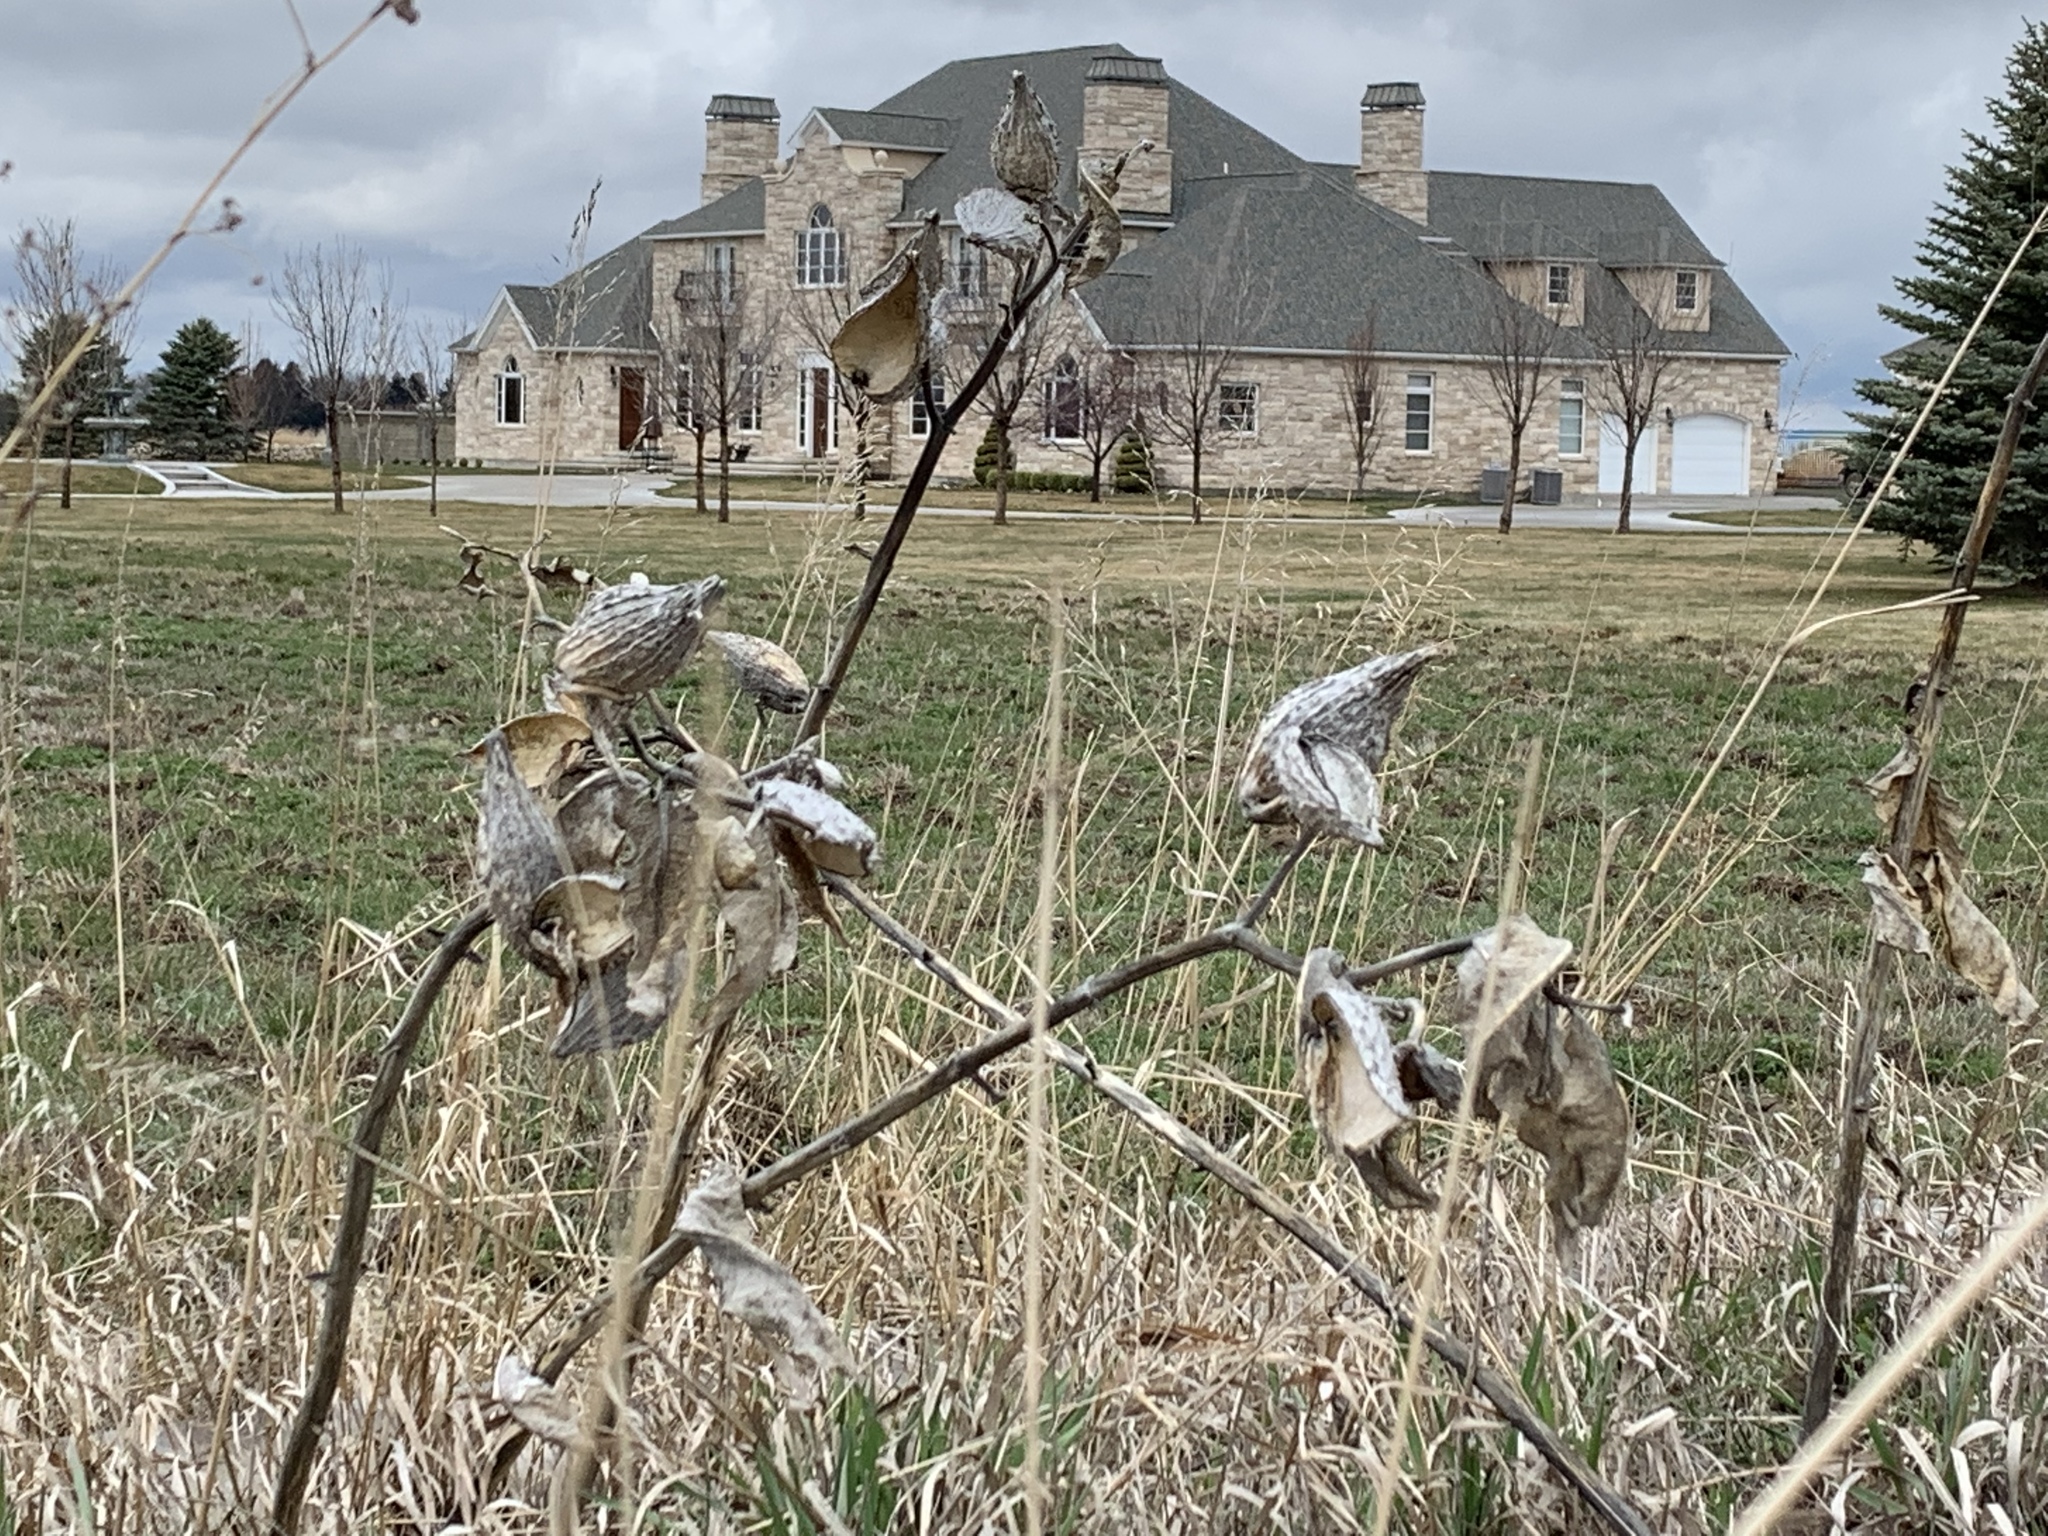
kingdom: Plantae
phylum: Tracheophyta
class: Magnoliopsida
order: Gentianales
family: Apocynaceae
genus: Asclepias
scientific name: Asclepias speciosa
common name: Showy milkweed
